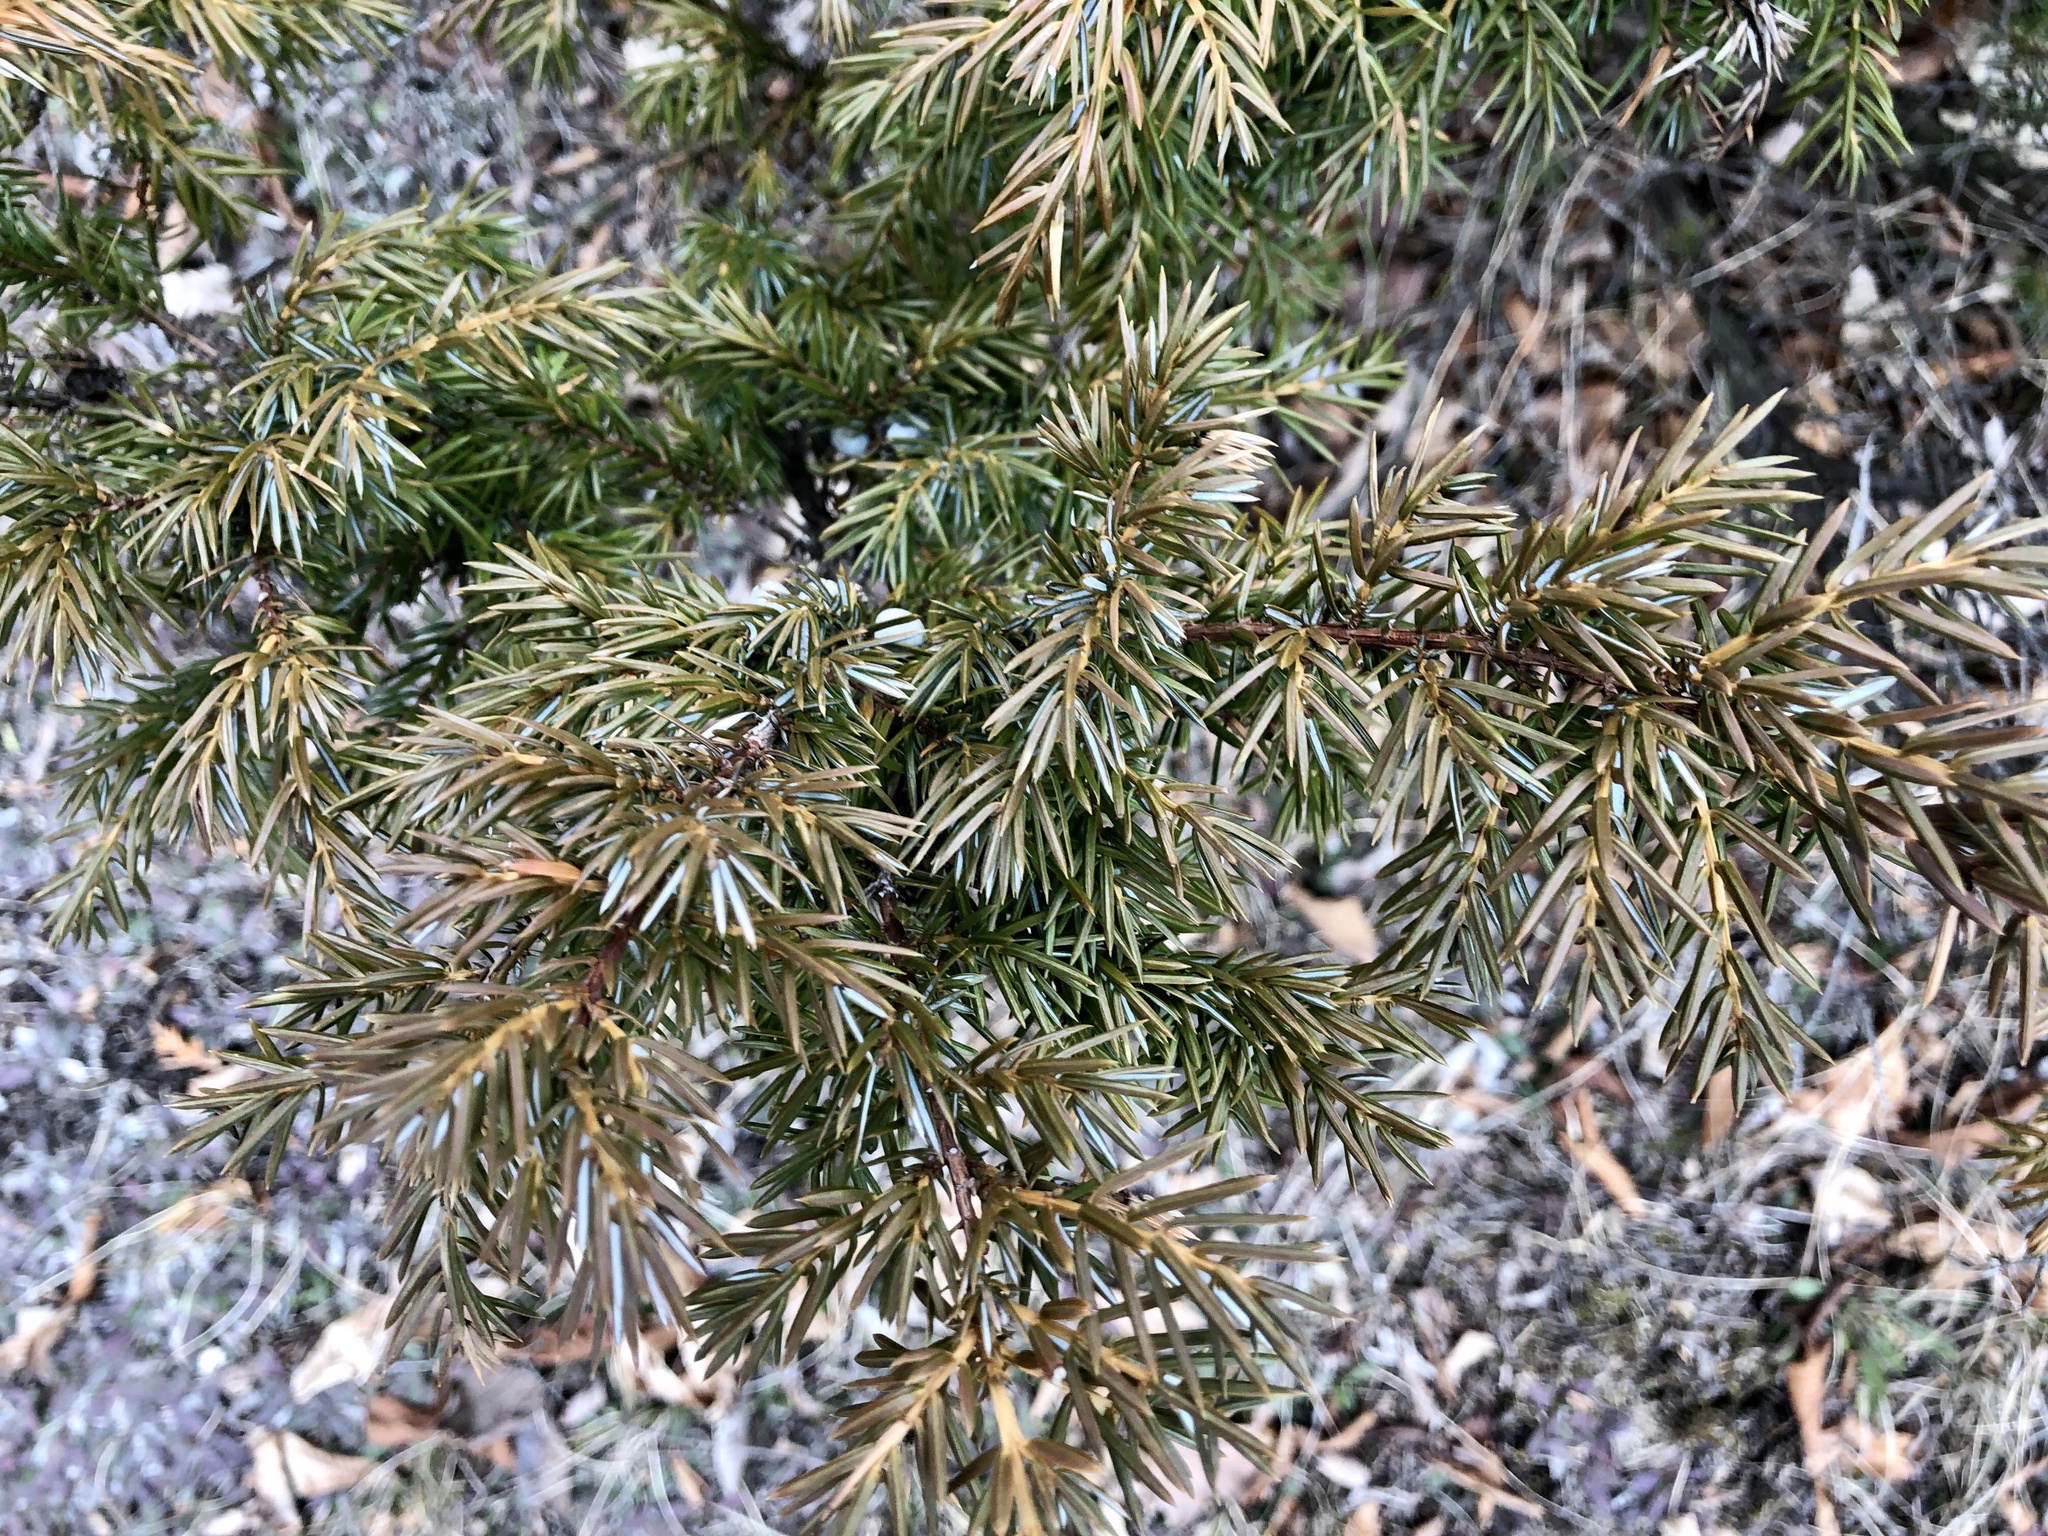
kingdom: Plantae
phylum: Tracheophyta
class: Pinopsida
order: Pinales
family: Cupressaceae
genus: Juniperus
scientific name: Juniperus communis
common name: Common juniper
